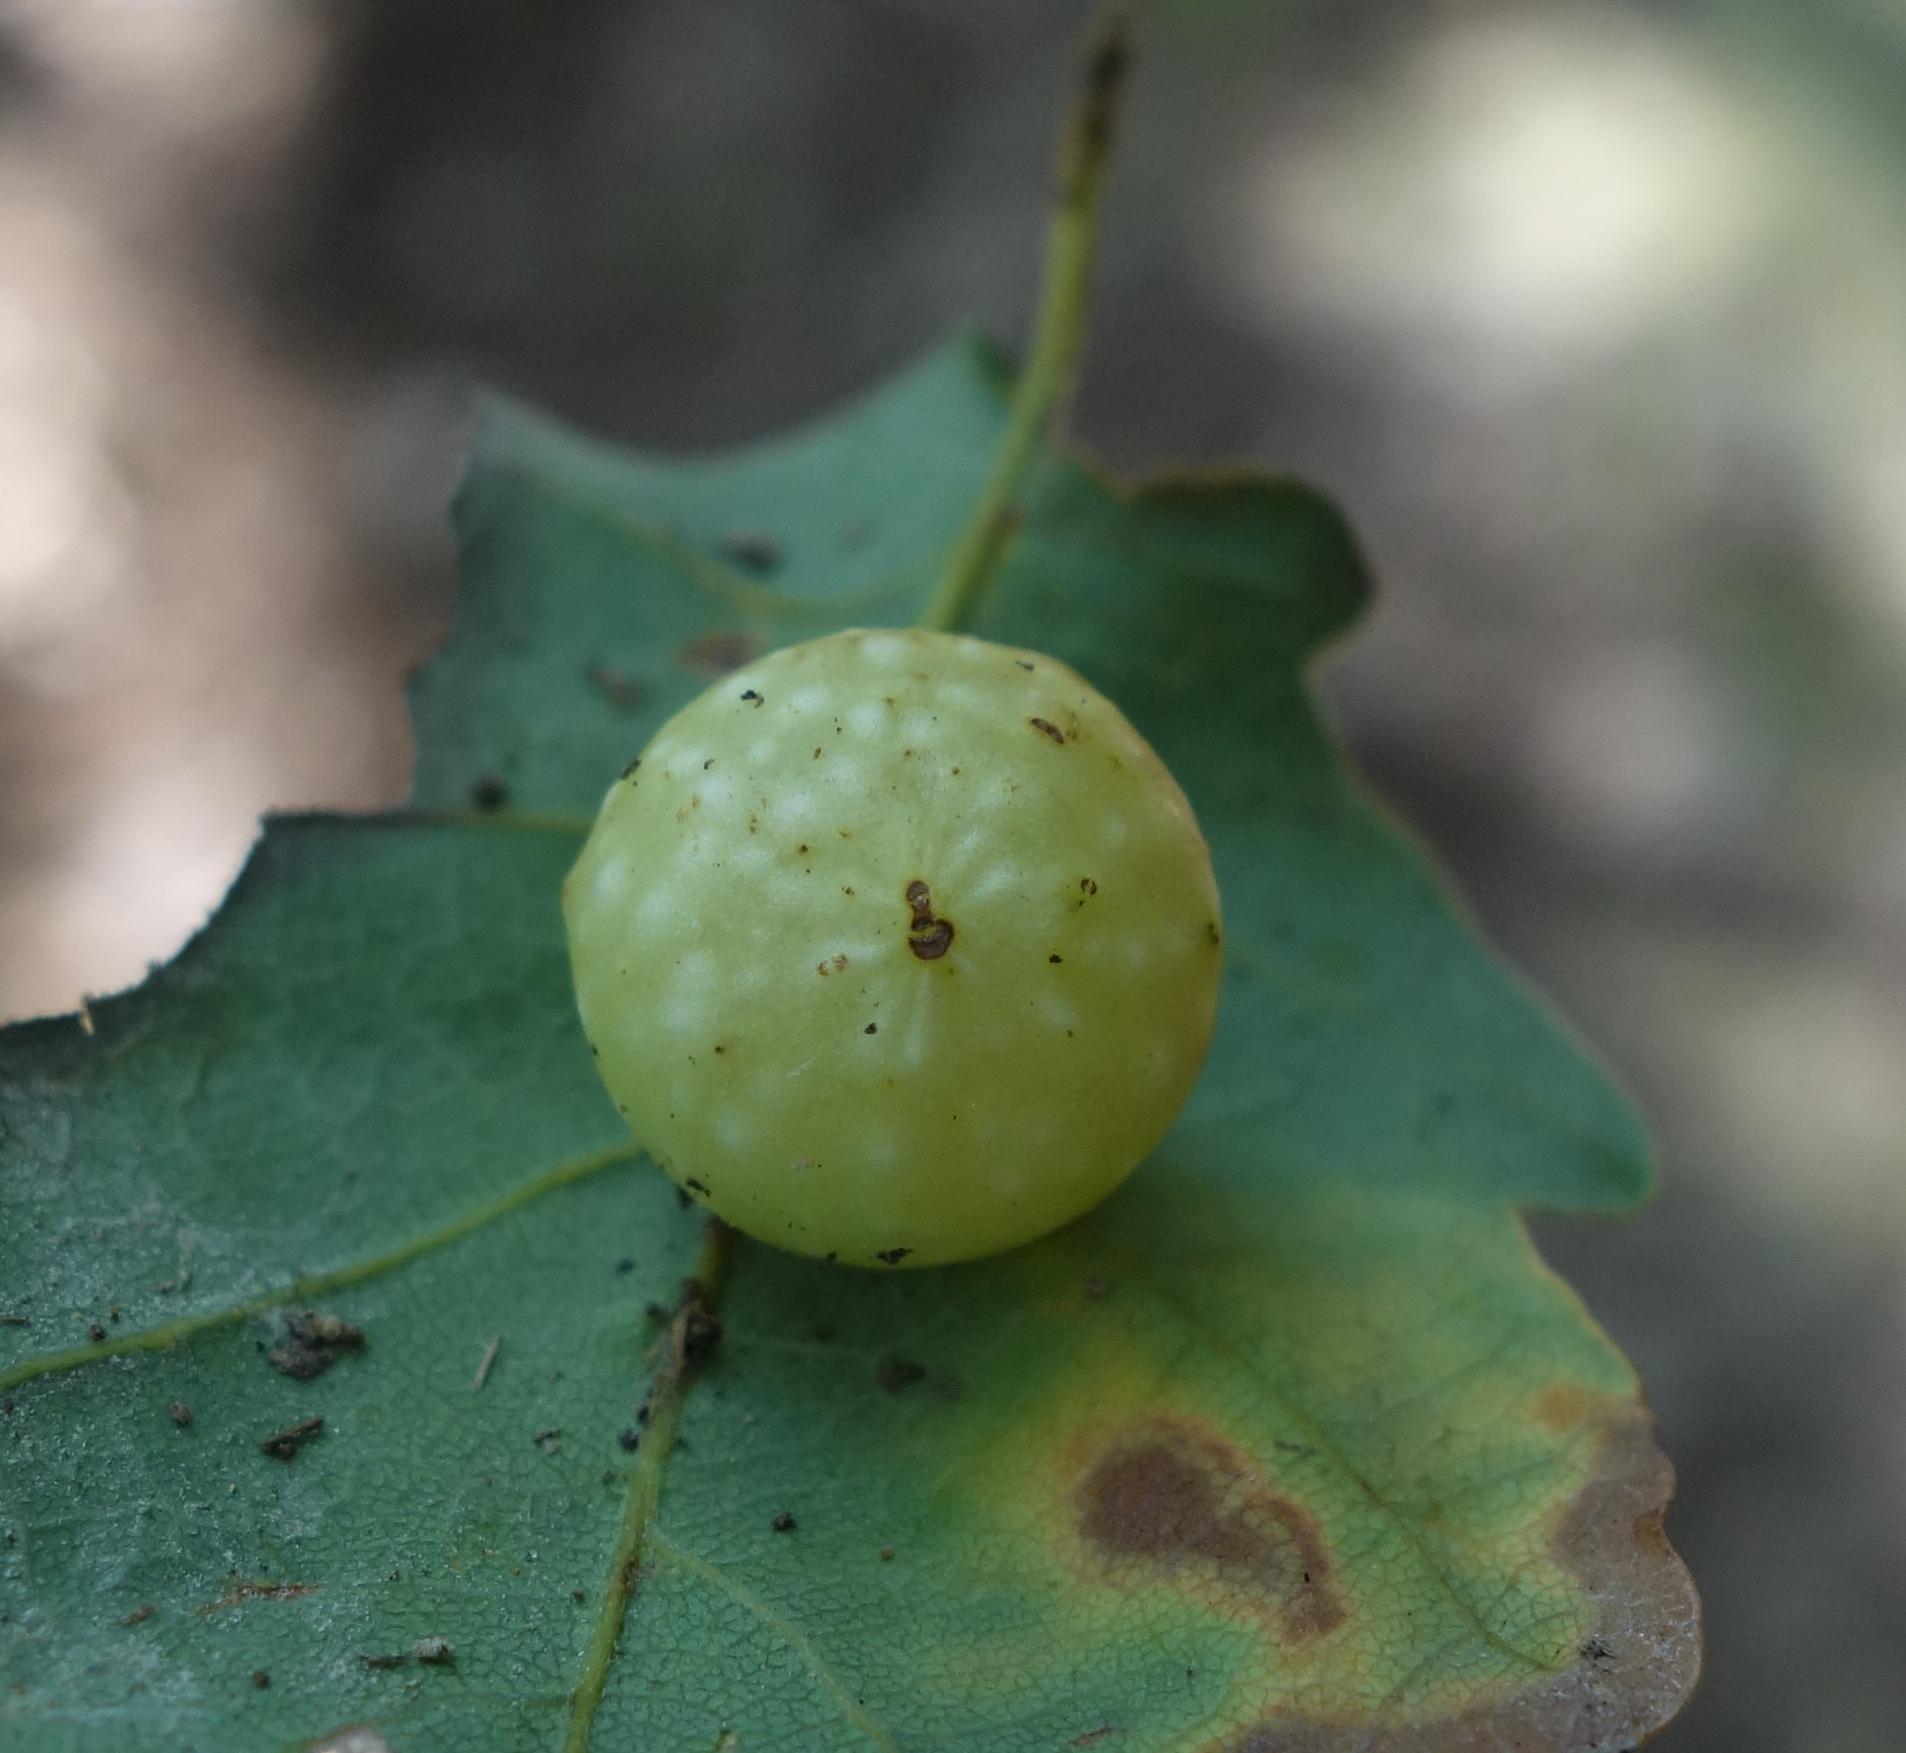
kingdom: Animalia
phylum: Arthropoda
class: Insecta
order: Hymenoptera
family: Cynipidae
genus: Cynips
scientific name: Cynips quercusfolii
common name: Cherry gall
